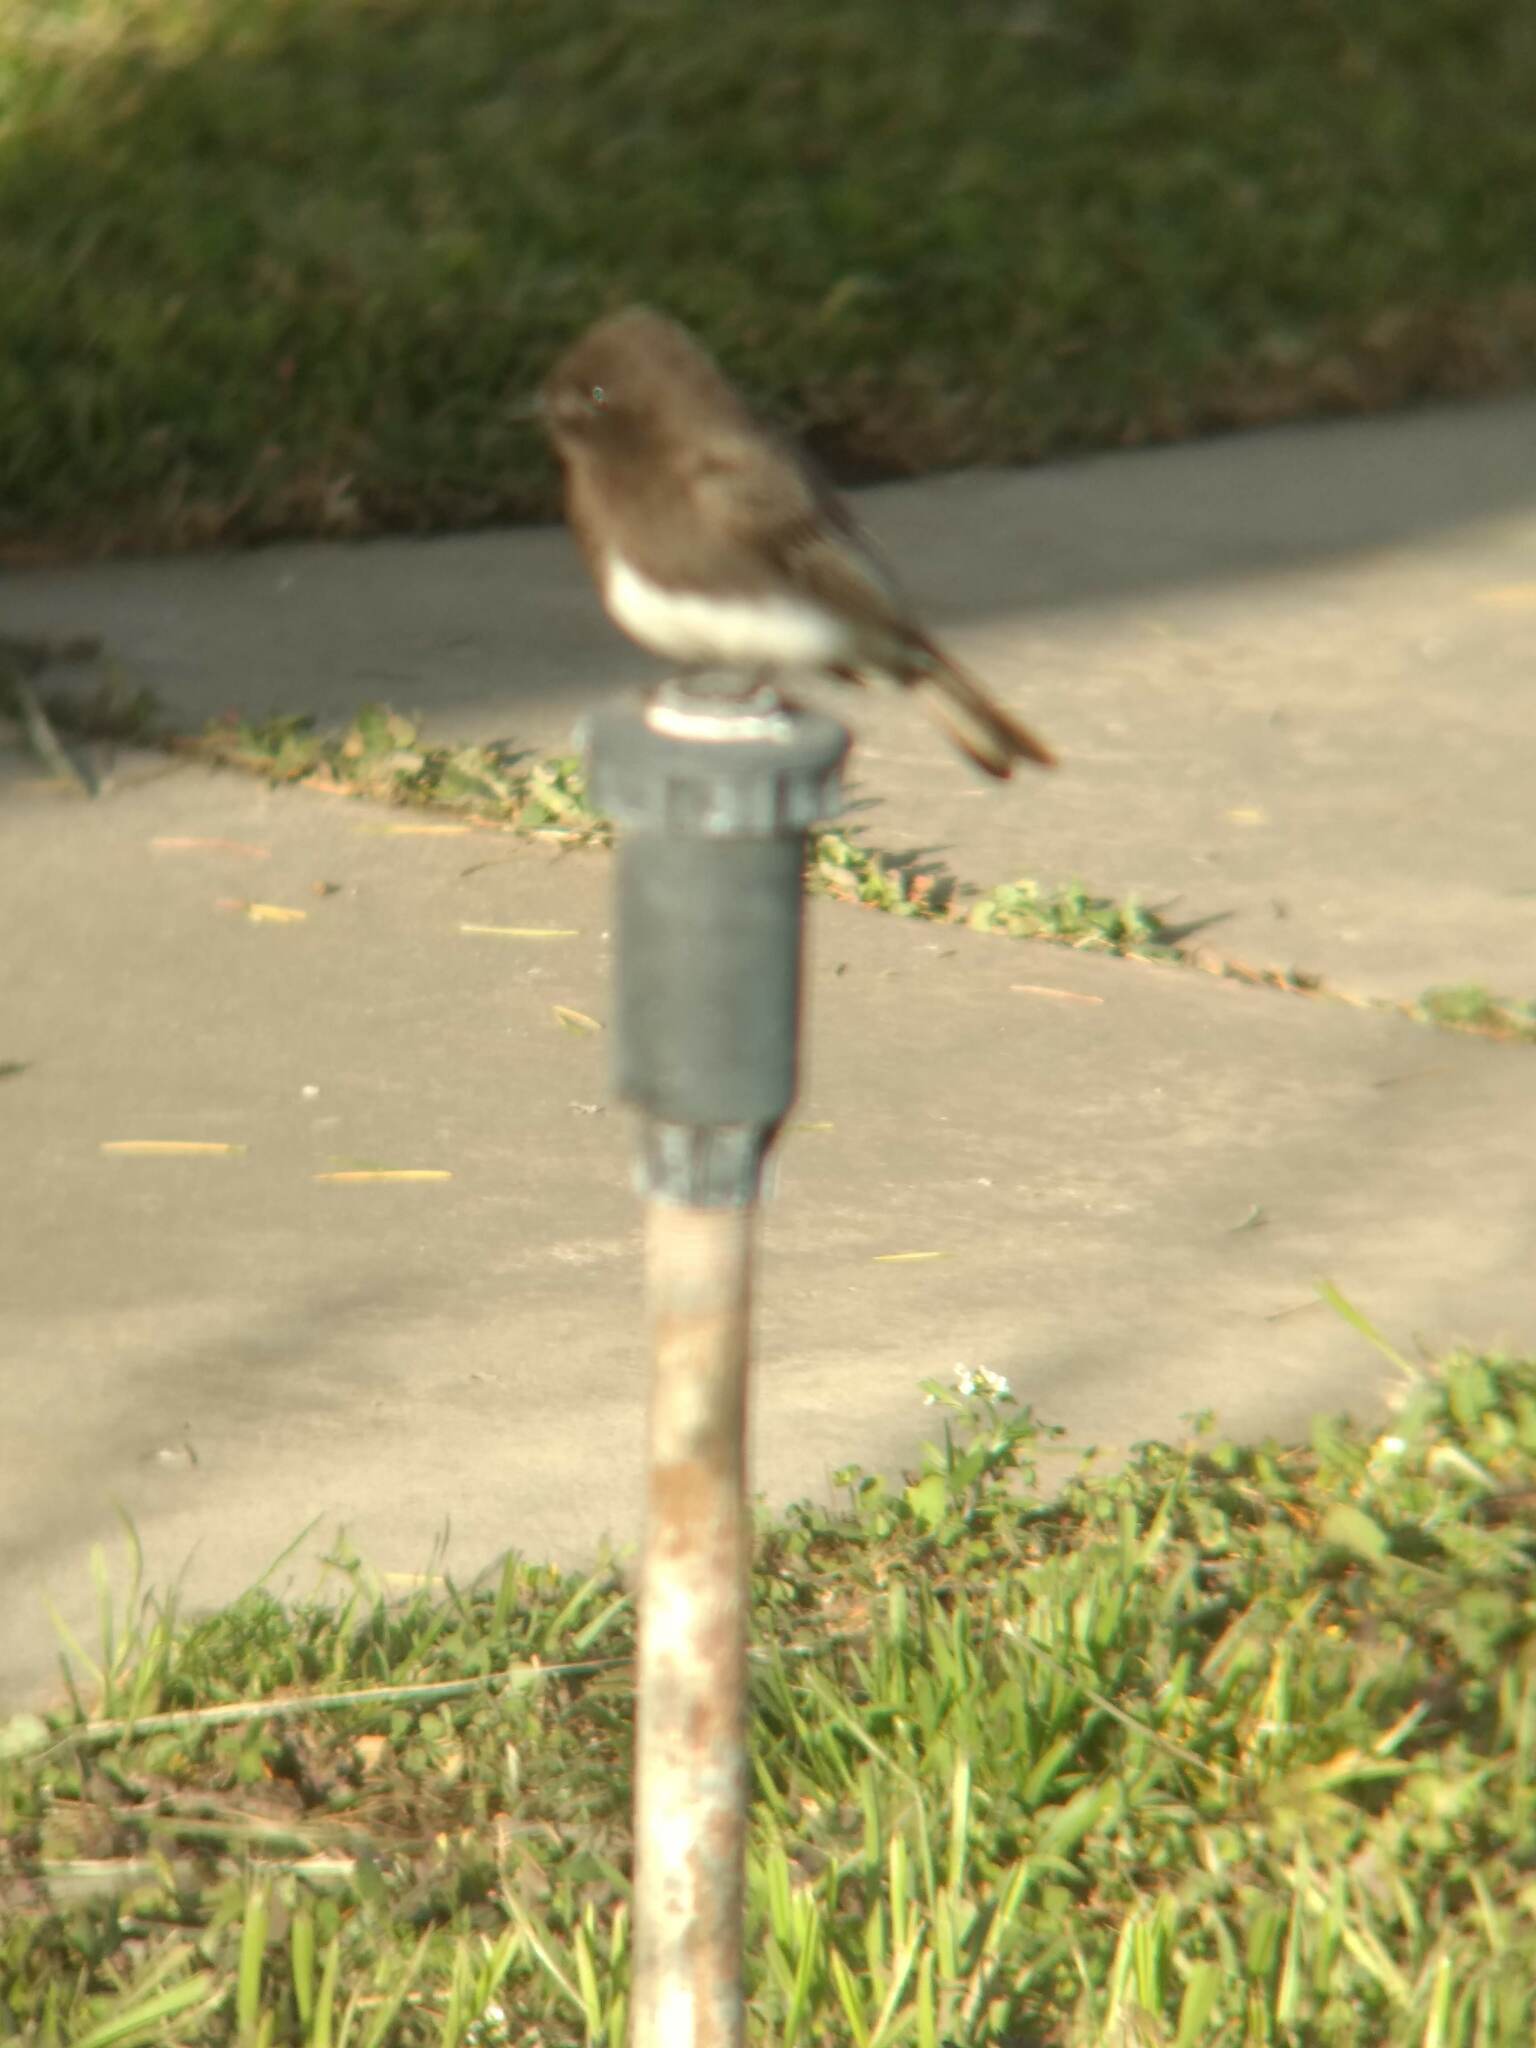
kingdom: Animalia
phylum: Chordata
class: Aves
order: Passeriformes
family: Tyrannidae
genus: Sayornis
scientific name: Sayornis nigricans
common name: Black phoebe
